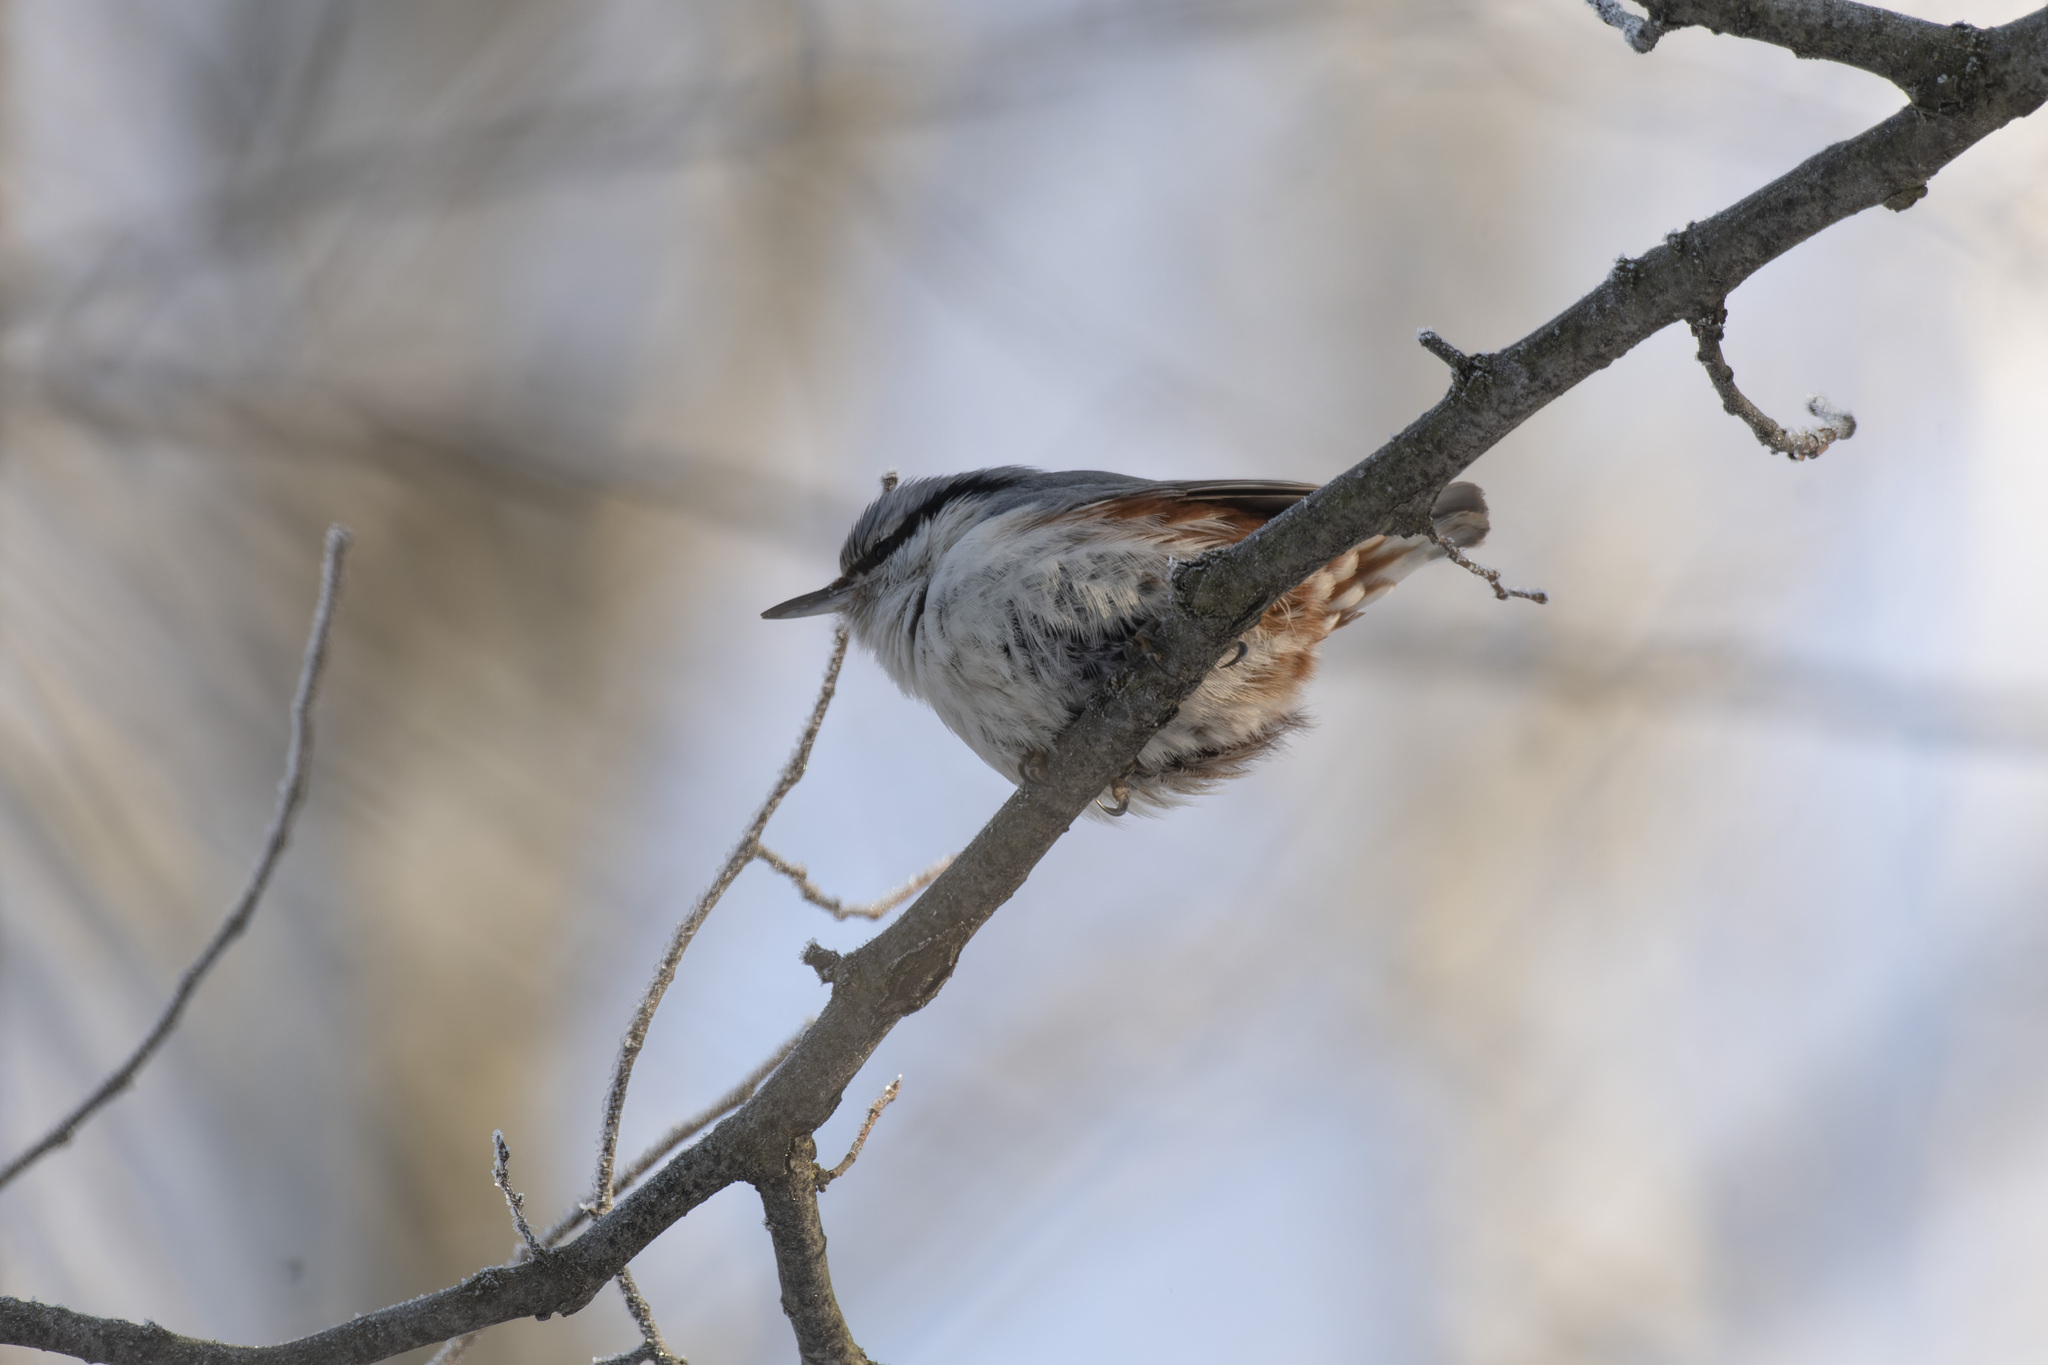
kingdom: Animalia
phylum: Chordata
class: Aves
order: Passeriformes
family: Sittidae
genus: Sitta
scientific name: Sitta europaea
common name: Eurasian nuthatch
